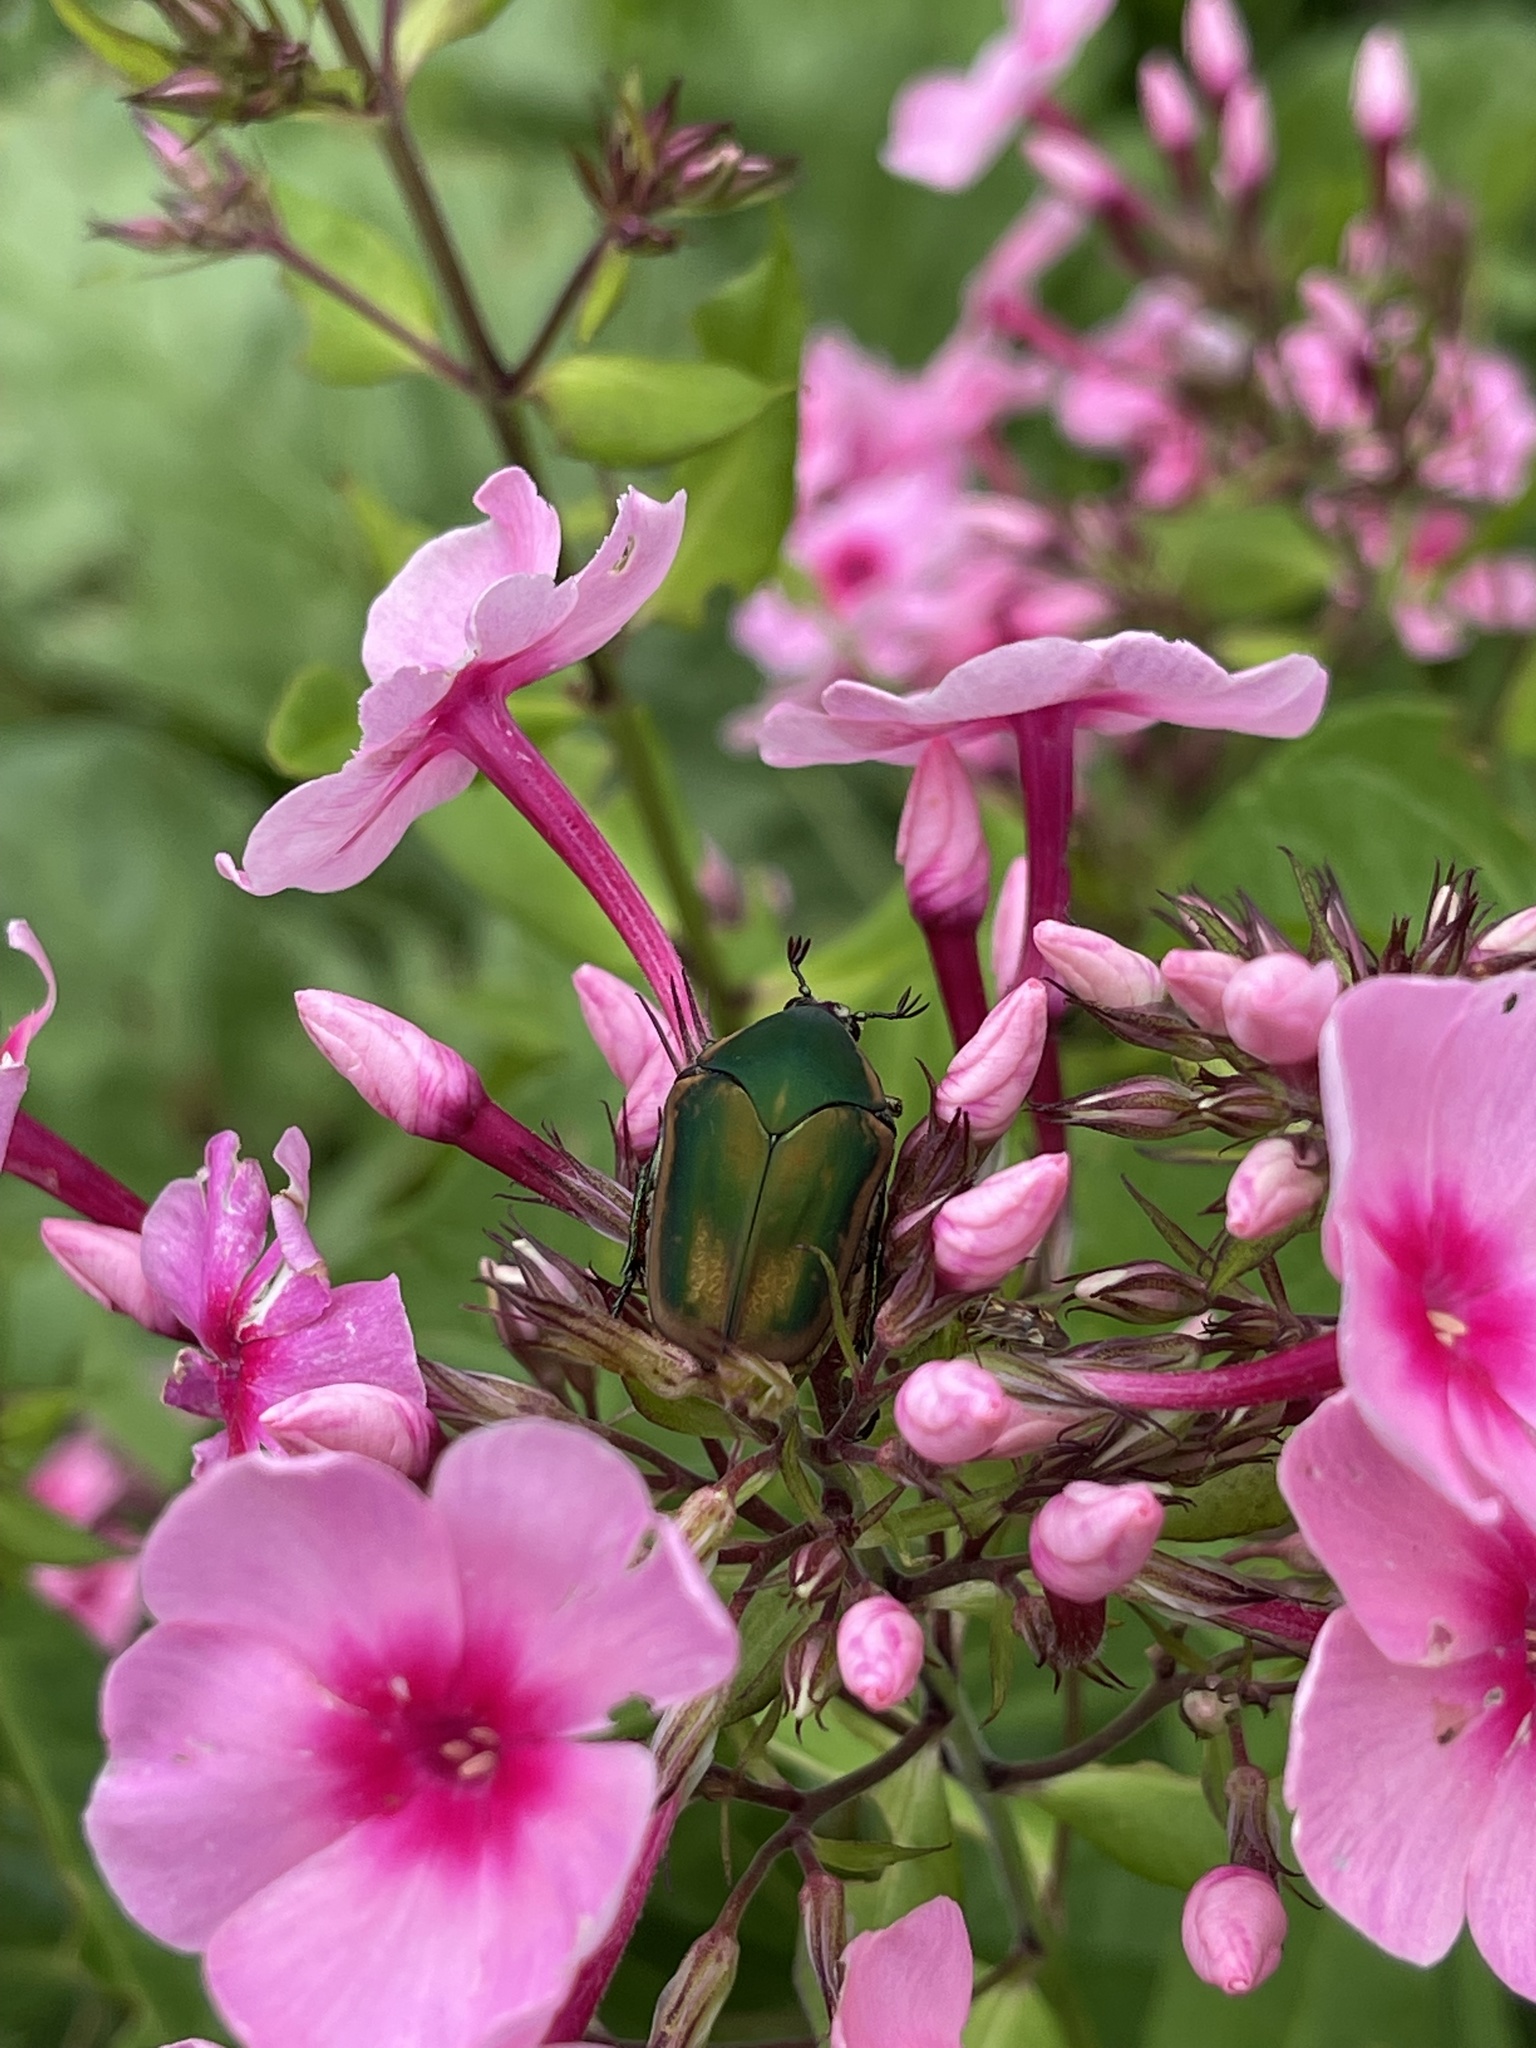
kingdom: Animalia
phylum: Arthropoda
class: Insecta
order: Coleoptera
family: Scarabaeidae
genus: Cotinis
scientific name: Cotinis nitida
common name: Common green june beetle
